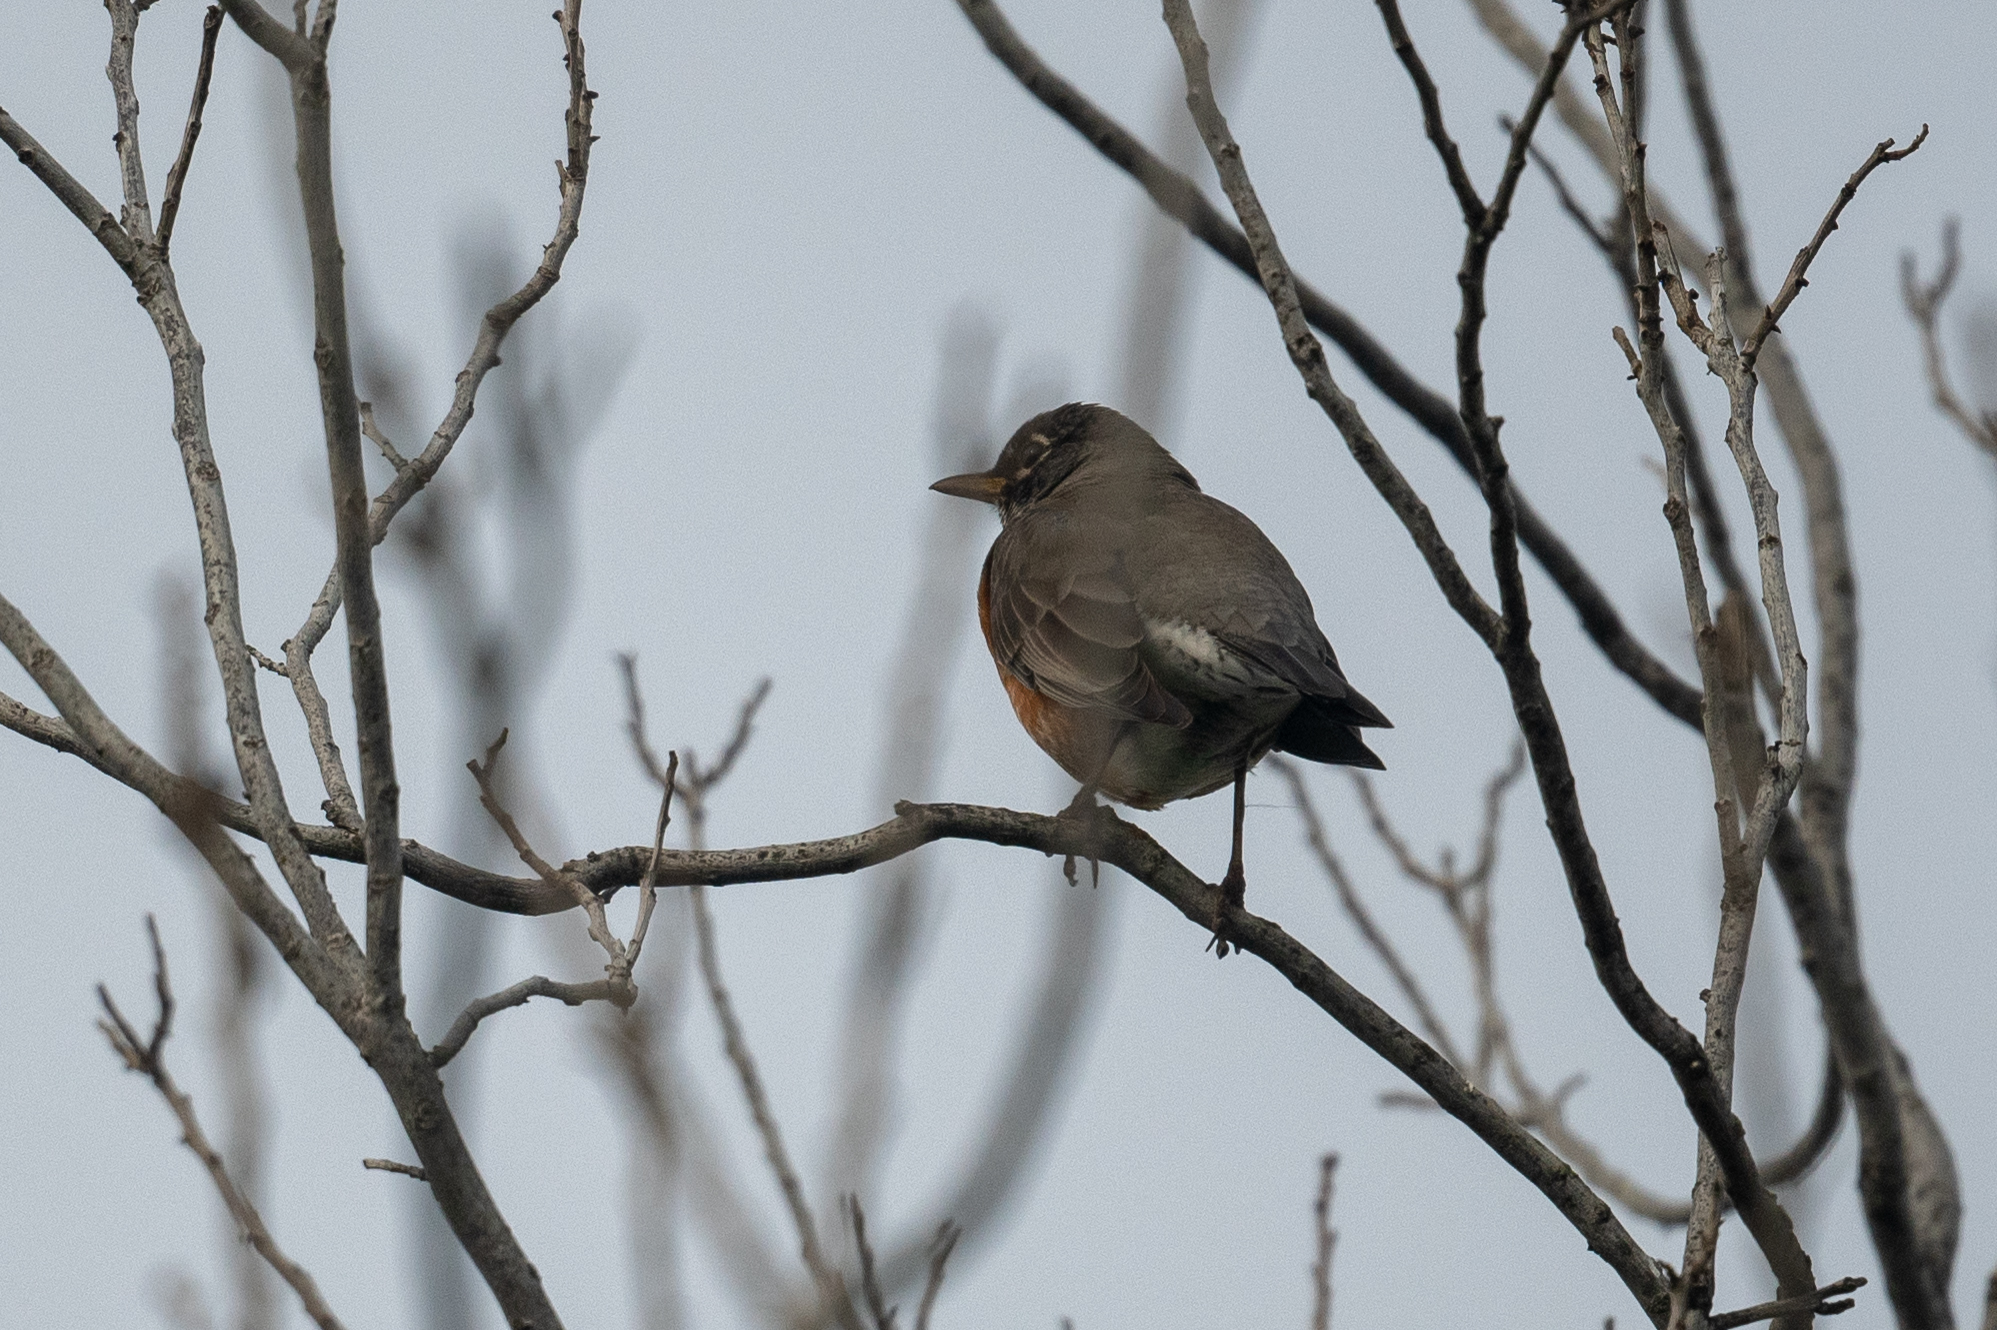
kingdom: Animalia
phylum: Chordata
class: Aves
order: Passeriformes
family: Turdidae
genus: Turdus
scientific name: Turdus migratorius
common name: American robin
